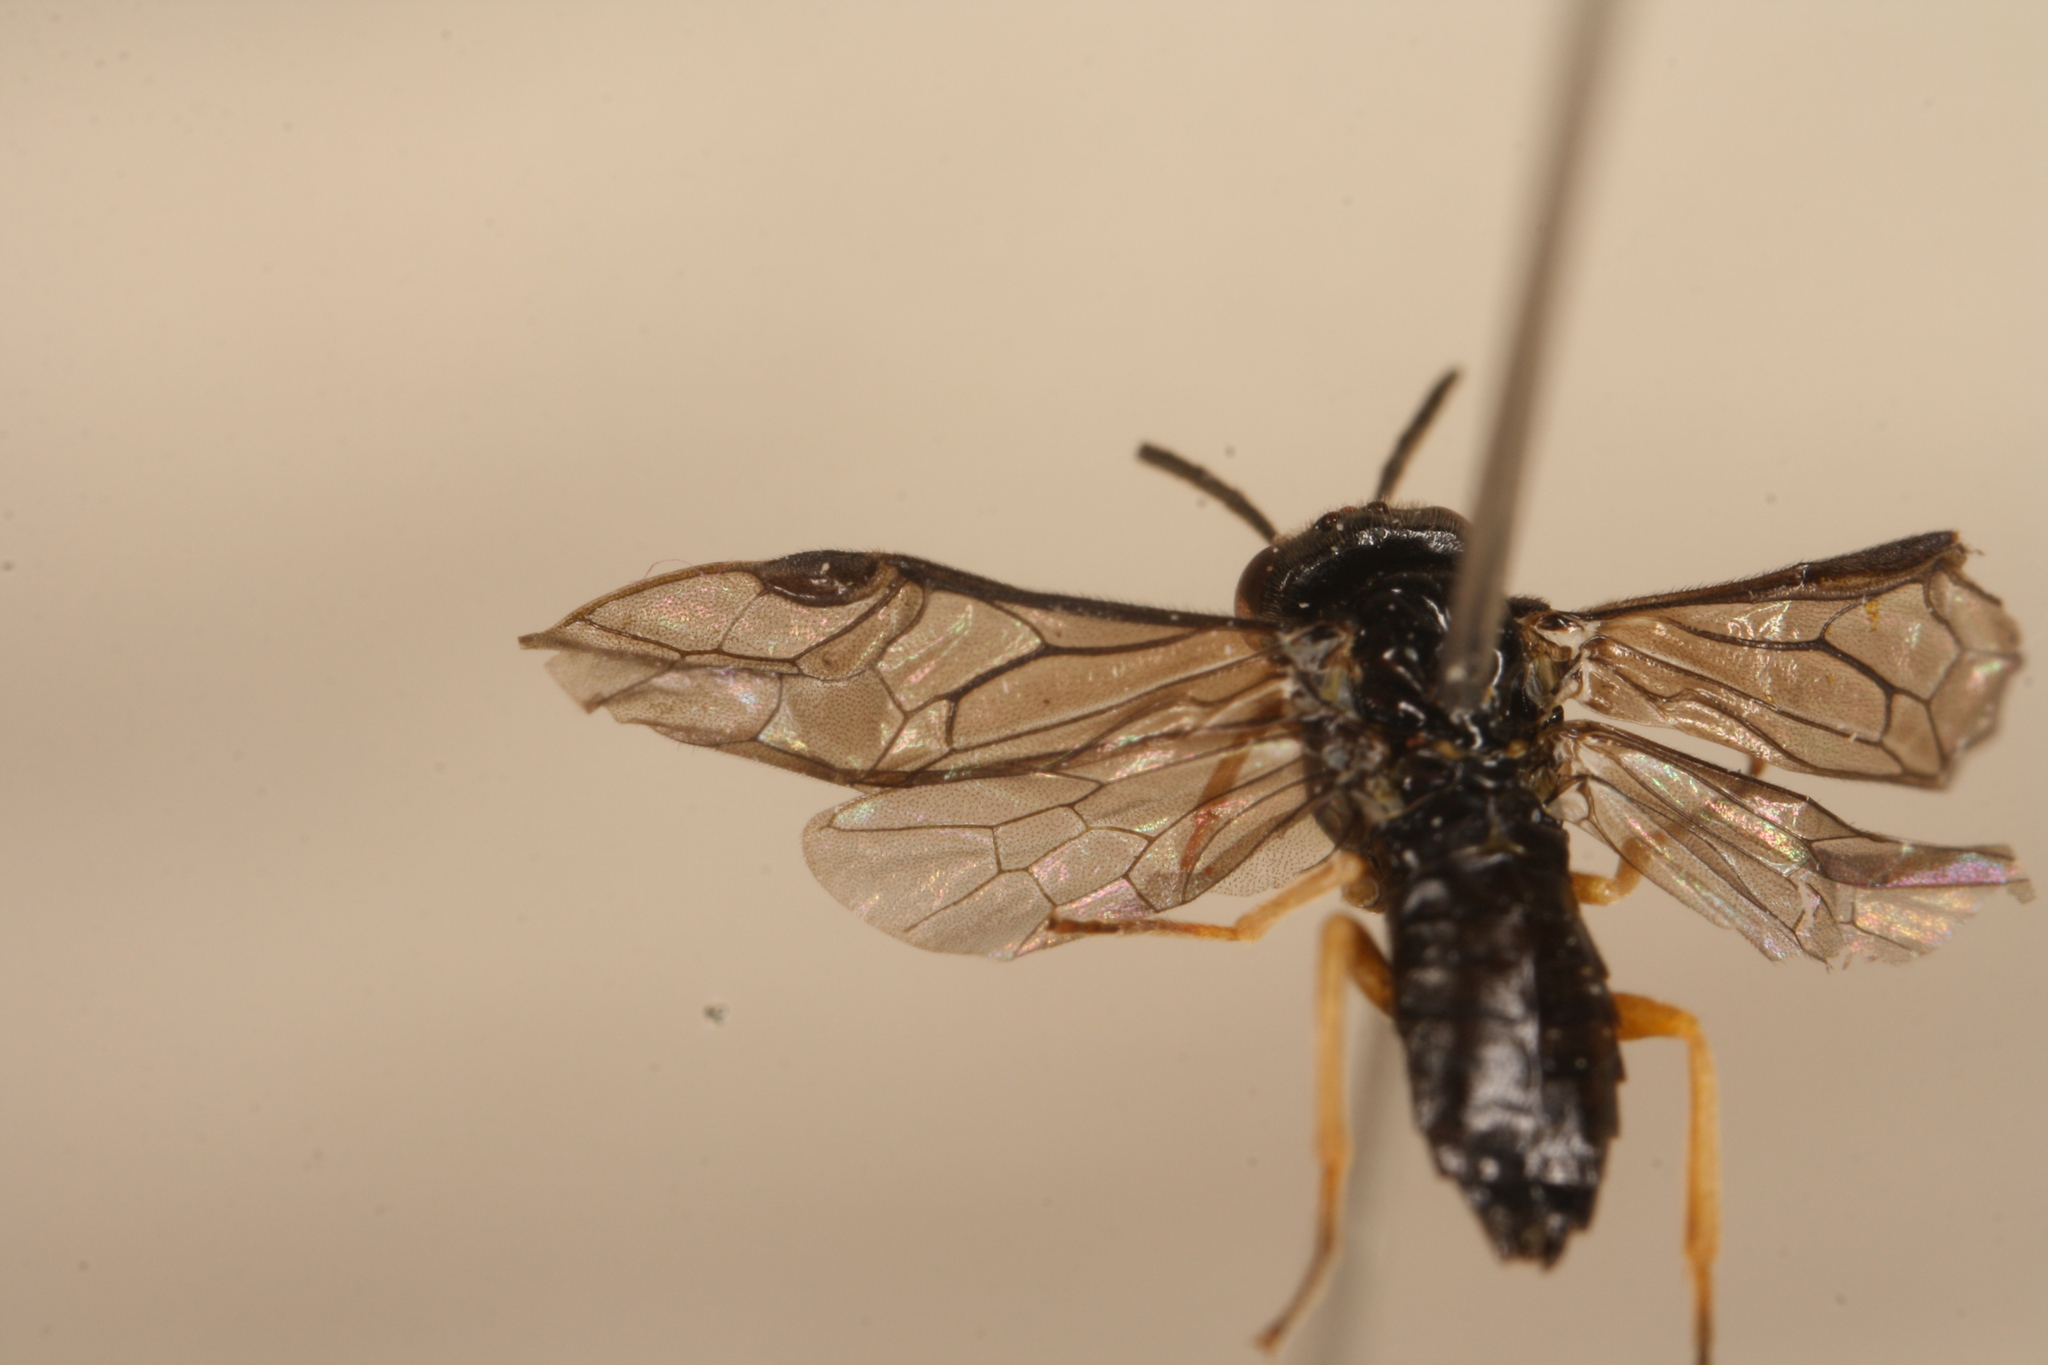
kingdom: Animalia
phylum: Arthropoda
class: Insecta
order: Hymenoptera
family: Tenthredinidae
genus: Nesoselandria
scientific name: Nesoselandria morio
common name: Tenthredid wasp
